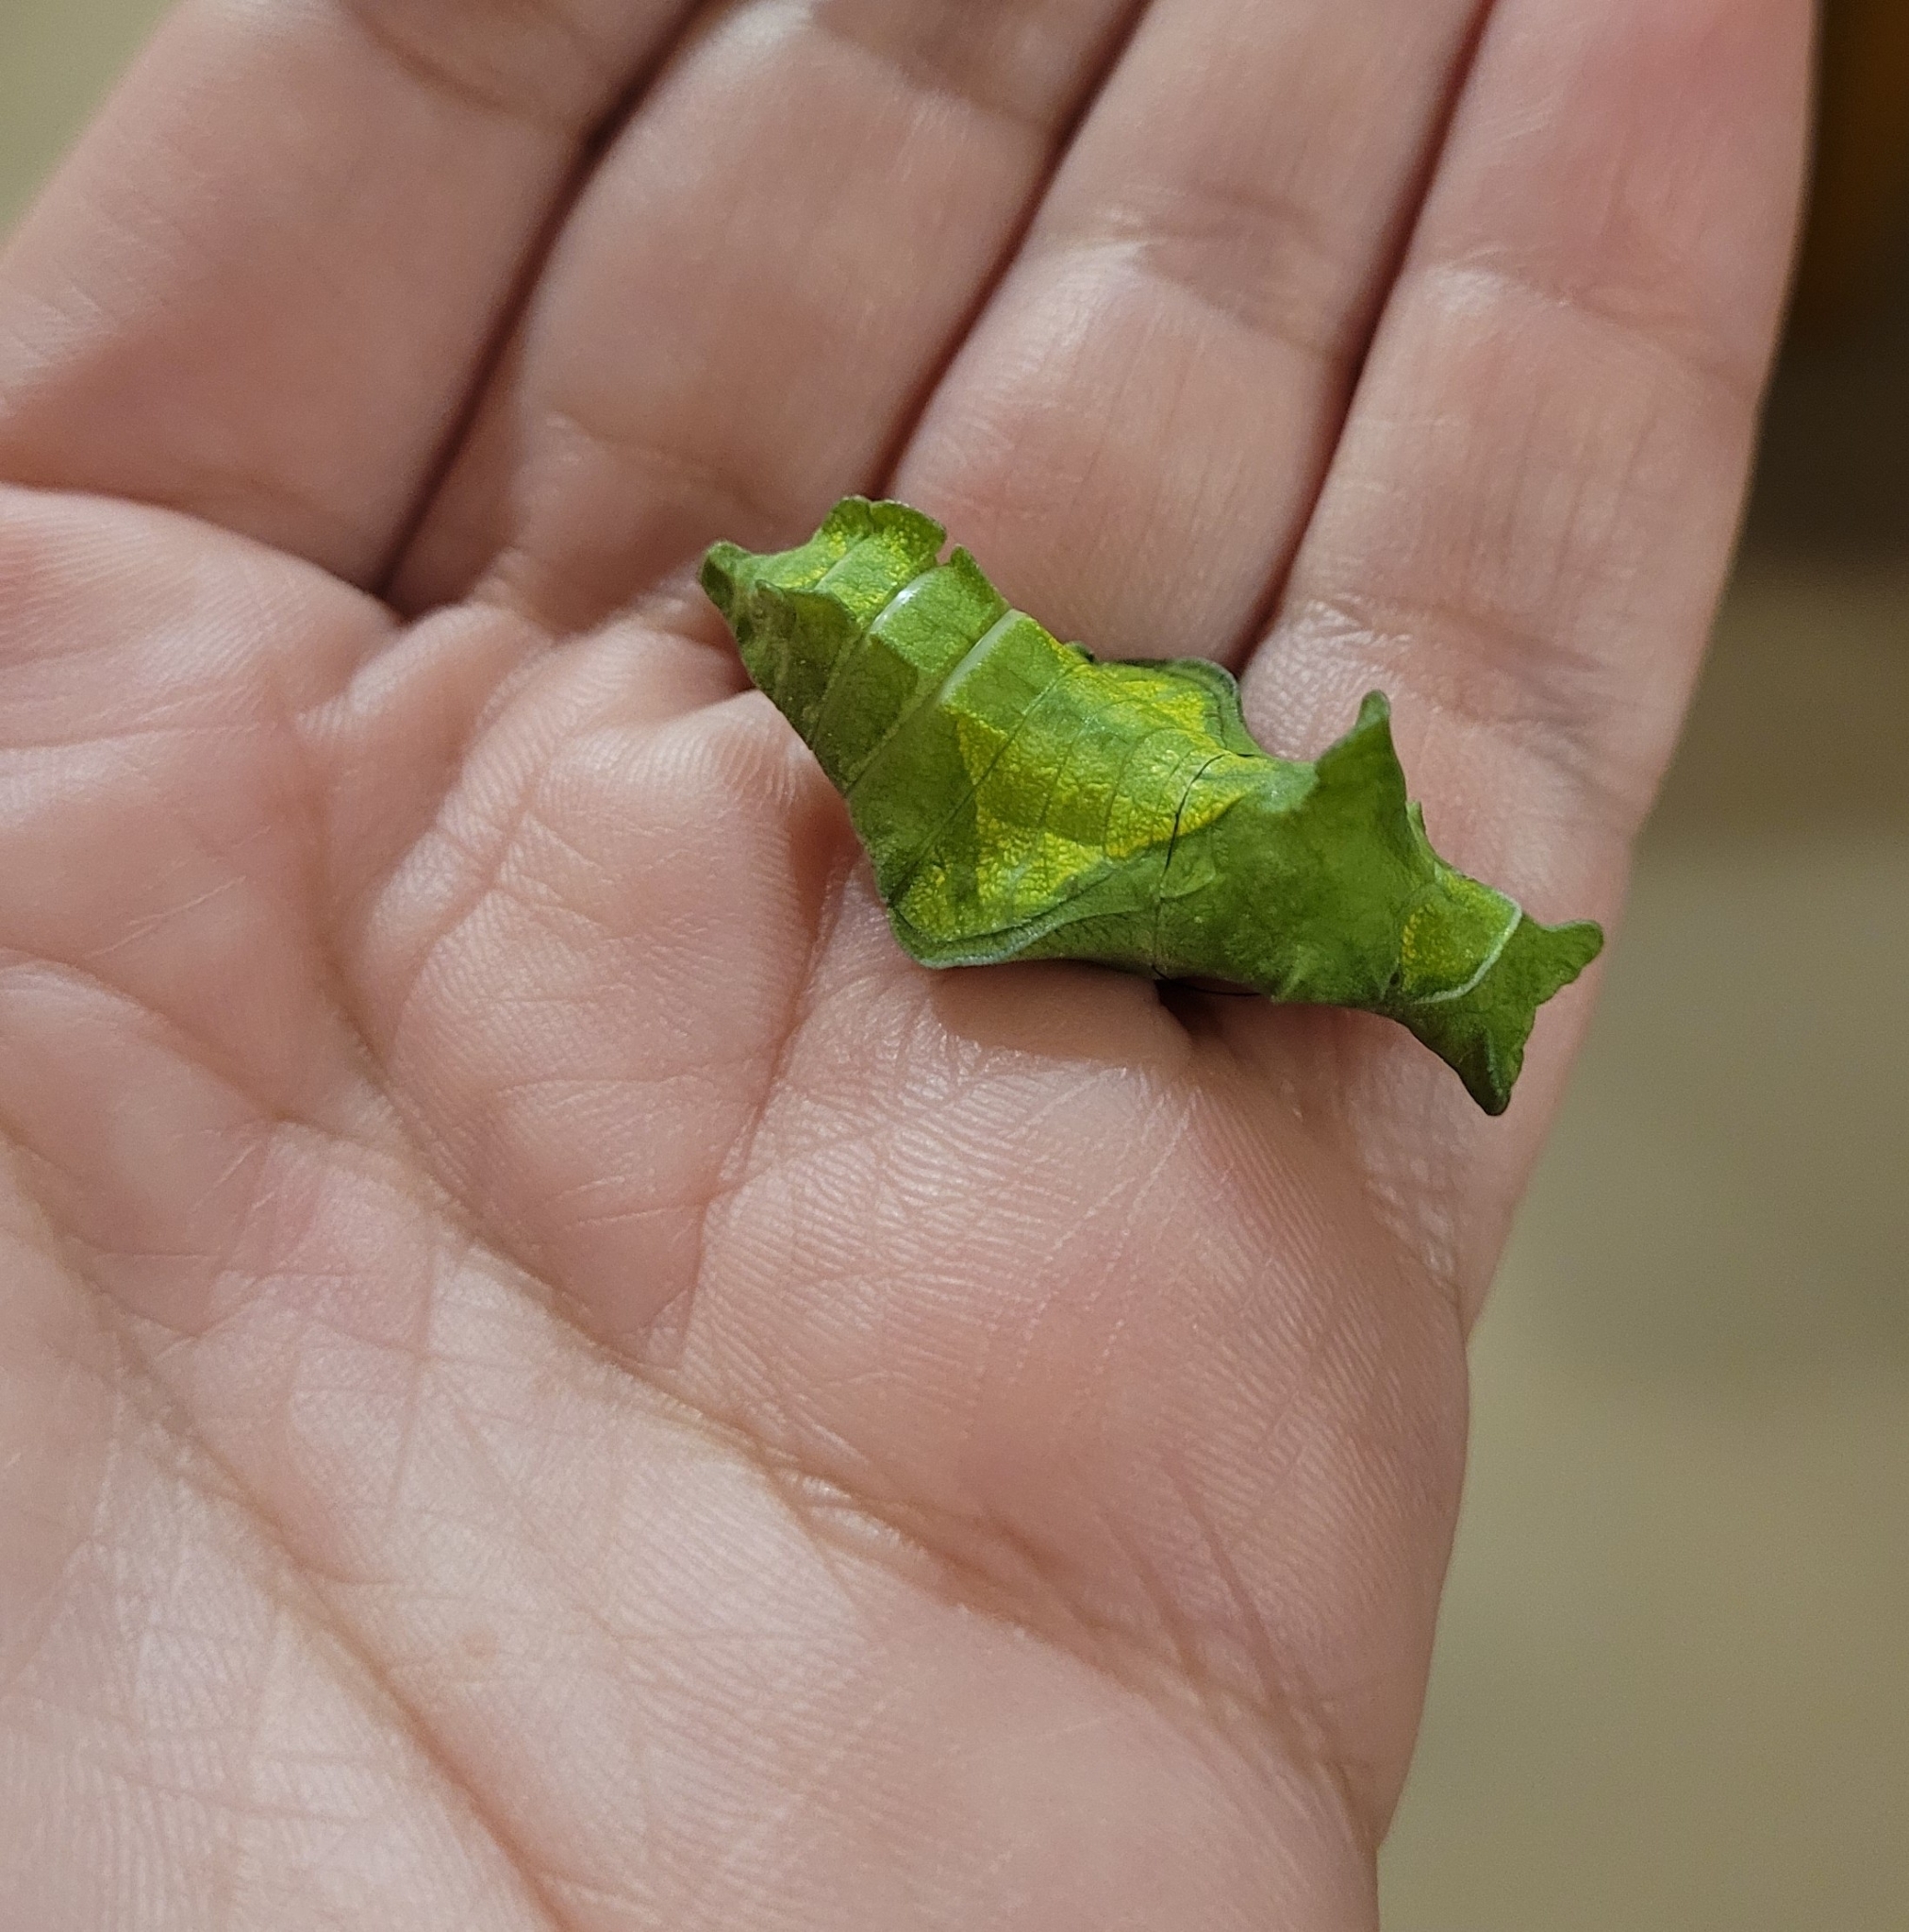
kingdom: Animalia
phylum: Arthropoda
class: Insecta
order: Lepidoptera
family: Papilionidae
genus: Battus
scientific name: Battus polydamas
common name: Polydamas swallowtail
